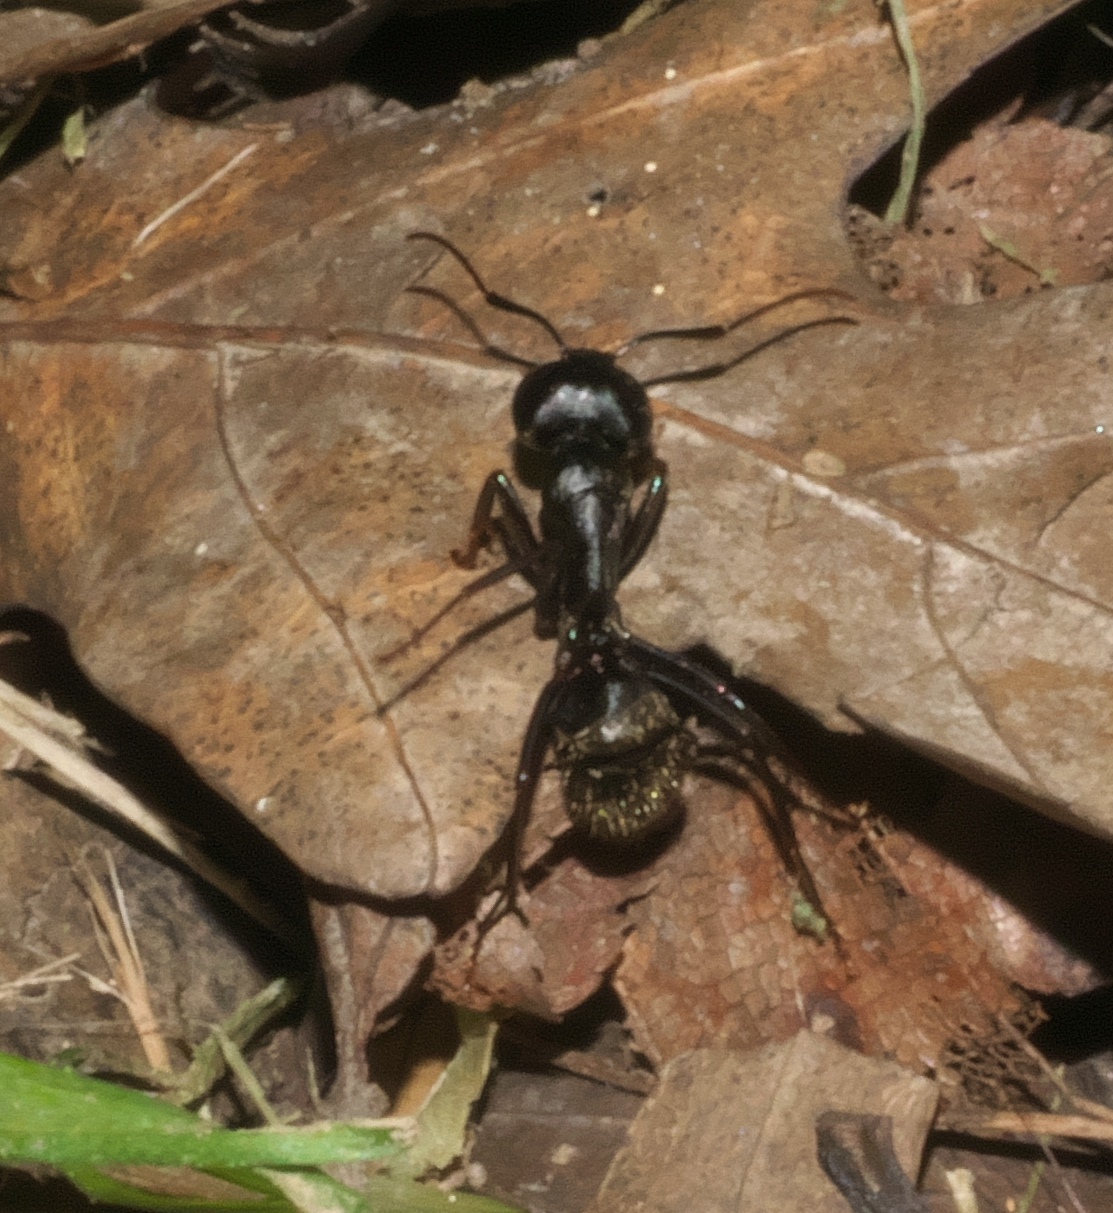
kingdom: Animalia
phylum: Arthropoda
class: Insecta
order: Hymenoptera
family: Formicidae
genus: Camponotus
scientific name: Camponotus pennsylvanicus
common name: Black carpenter ant
